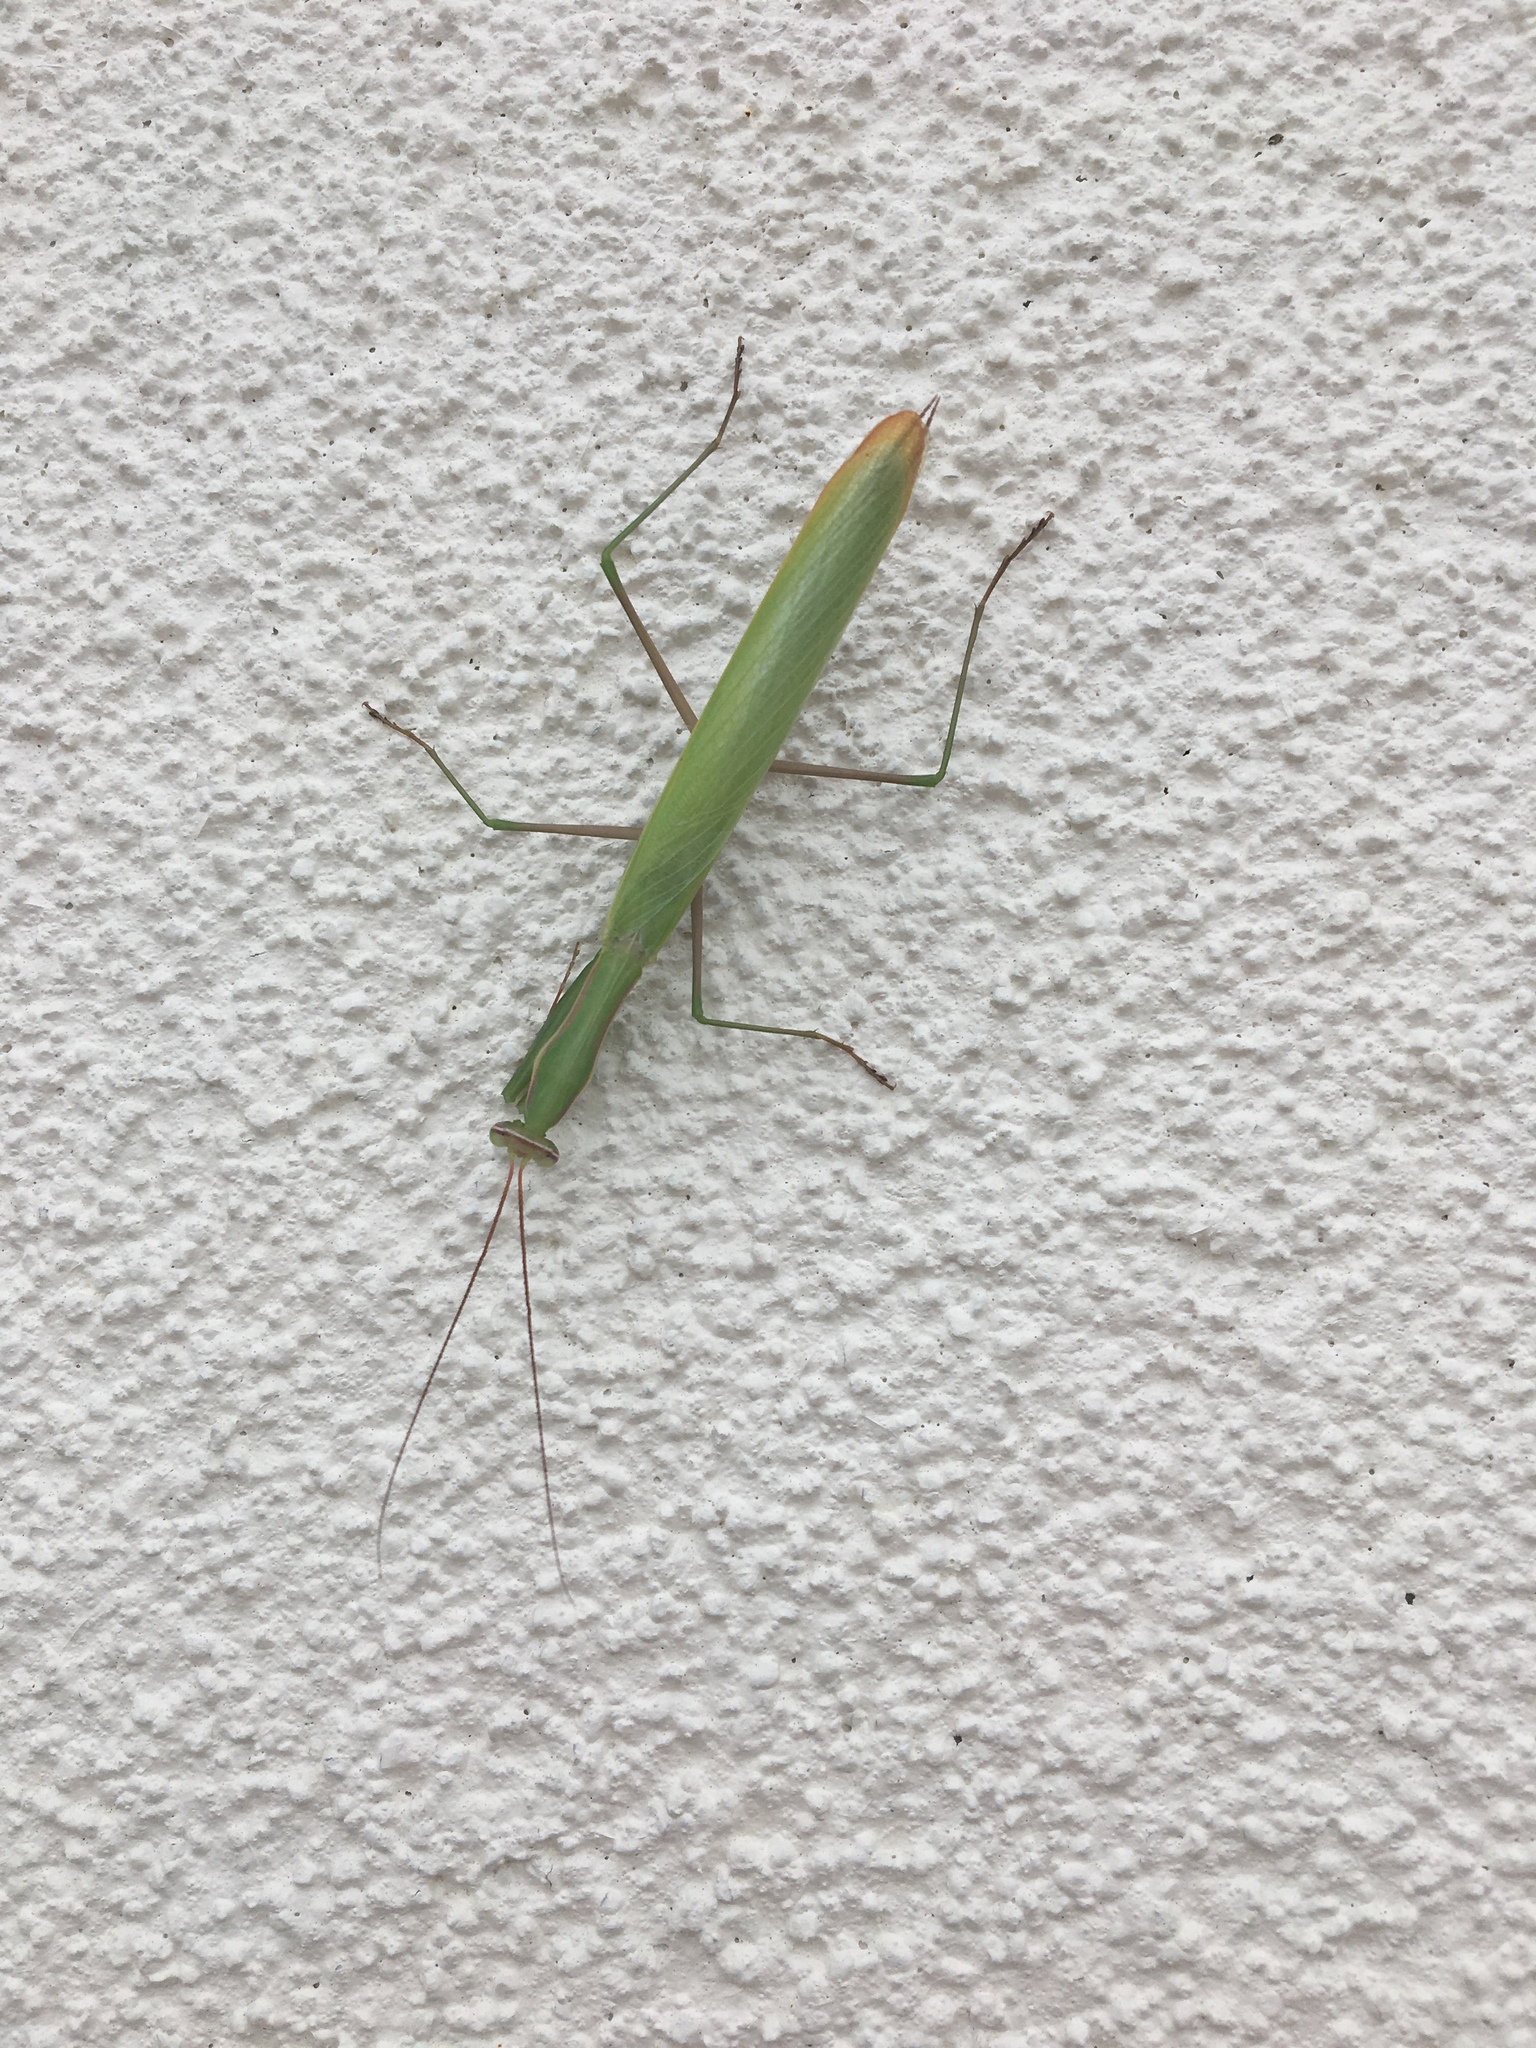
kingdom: Animalia
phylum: Arthropoda
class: Insecta
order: Mantodea
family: Mantidae
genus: Mantis
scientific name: Mantis religiosa
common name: Praying mantis
